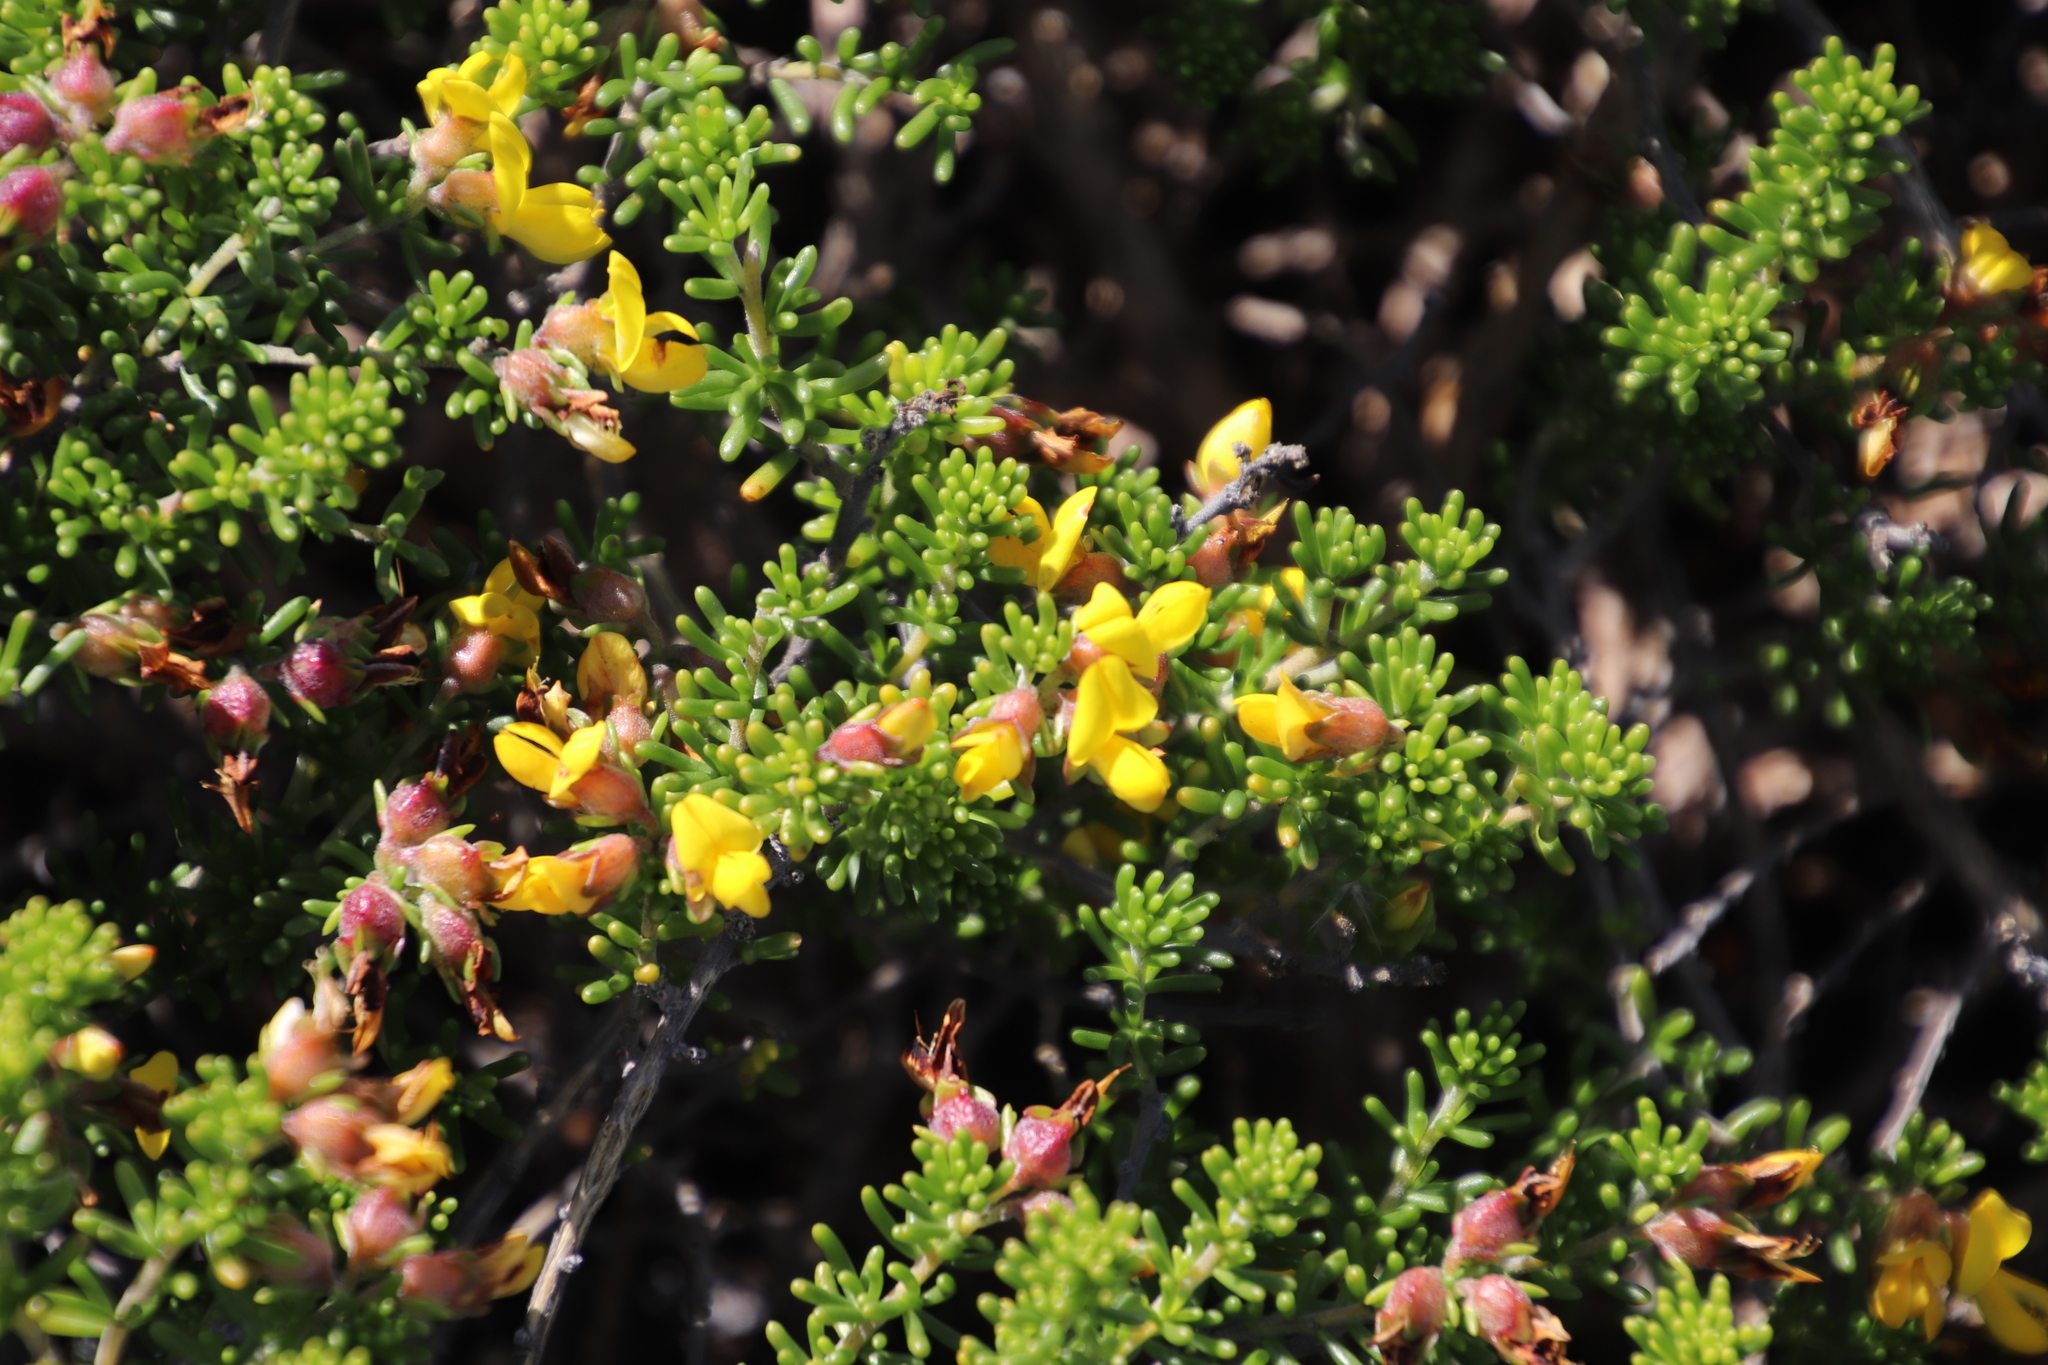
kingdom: Plantae
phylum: Tracheophyta
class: Magnoliopsida
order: Fabales
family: Fabaceae
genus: Aspalathus
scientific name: Aspalathus carnosa
